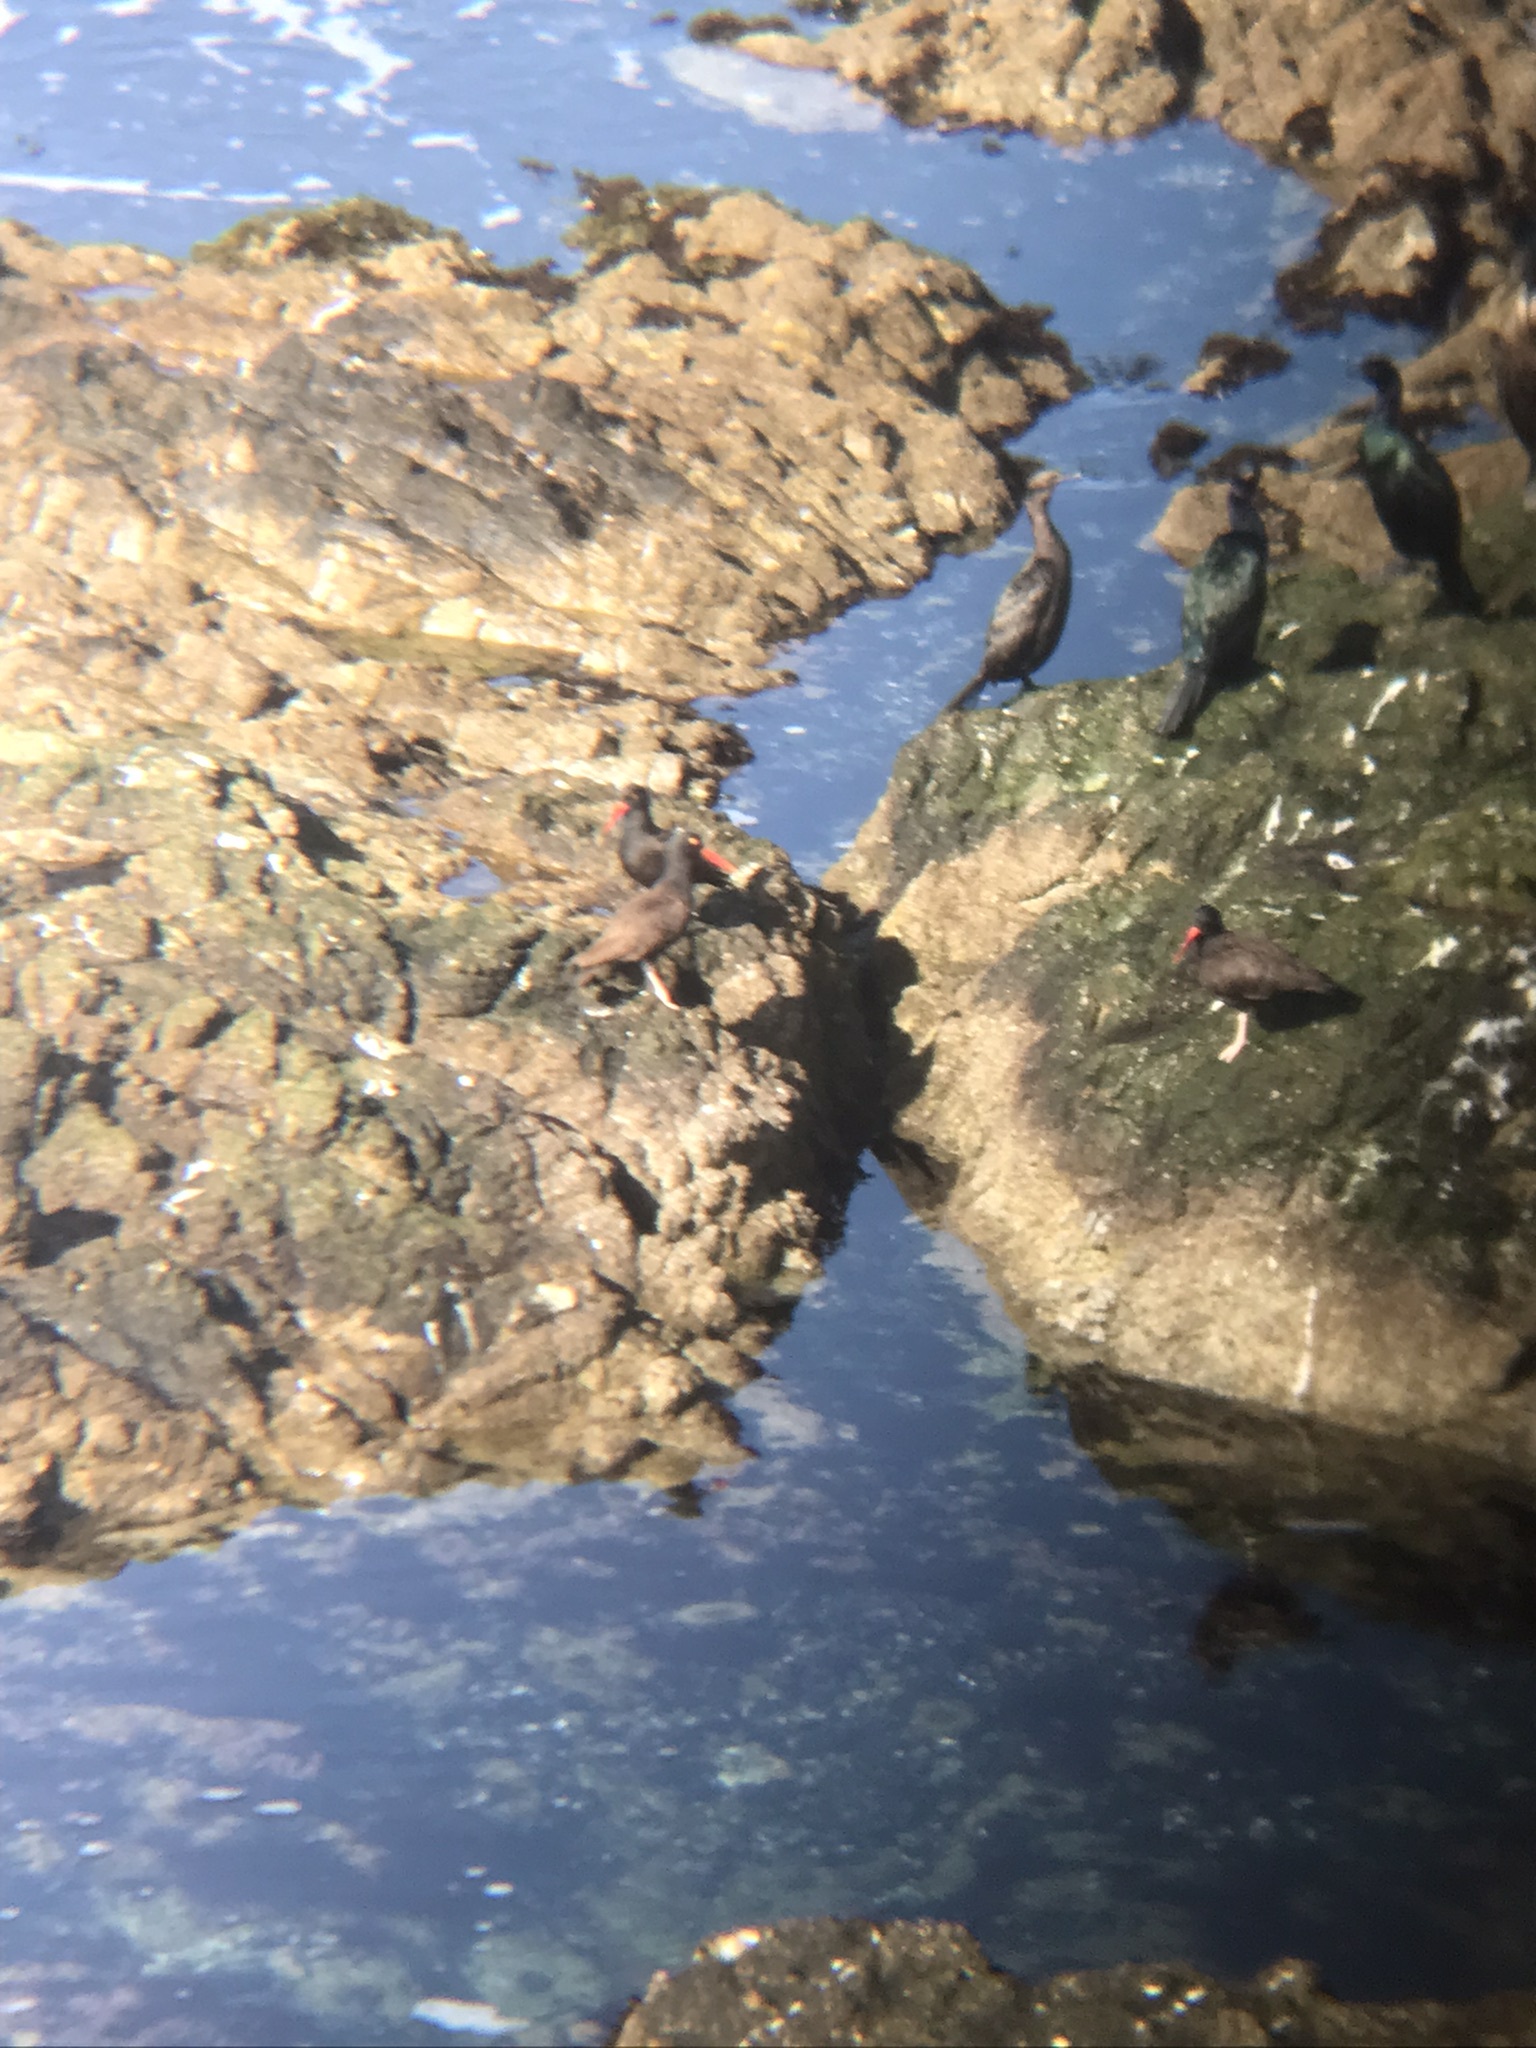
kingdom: Animalia
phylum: Chordata
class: Aves
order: Charadriiformes
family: Haematopodidae
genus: Haematopus
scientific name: Haematopus bachmani
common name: Black oystercatcher
